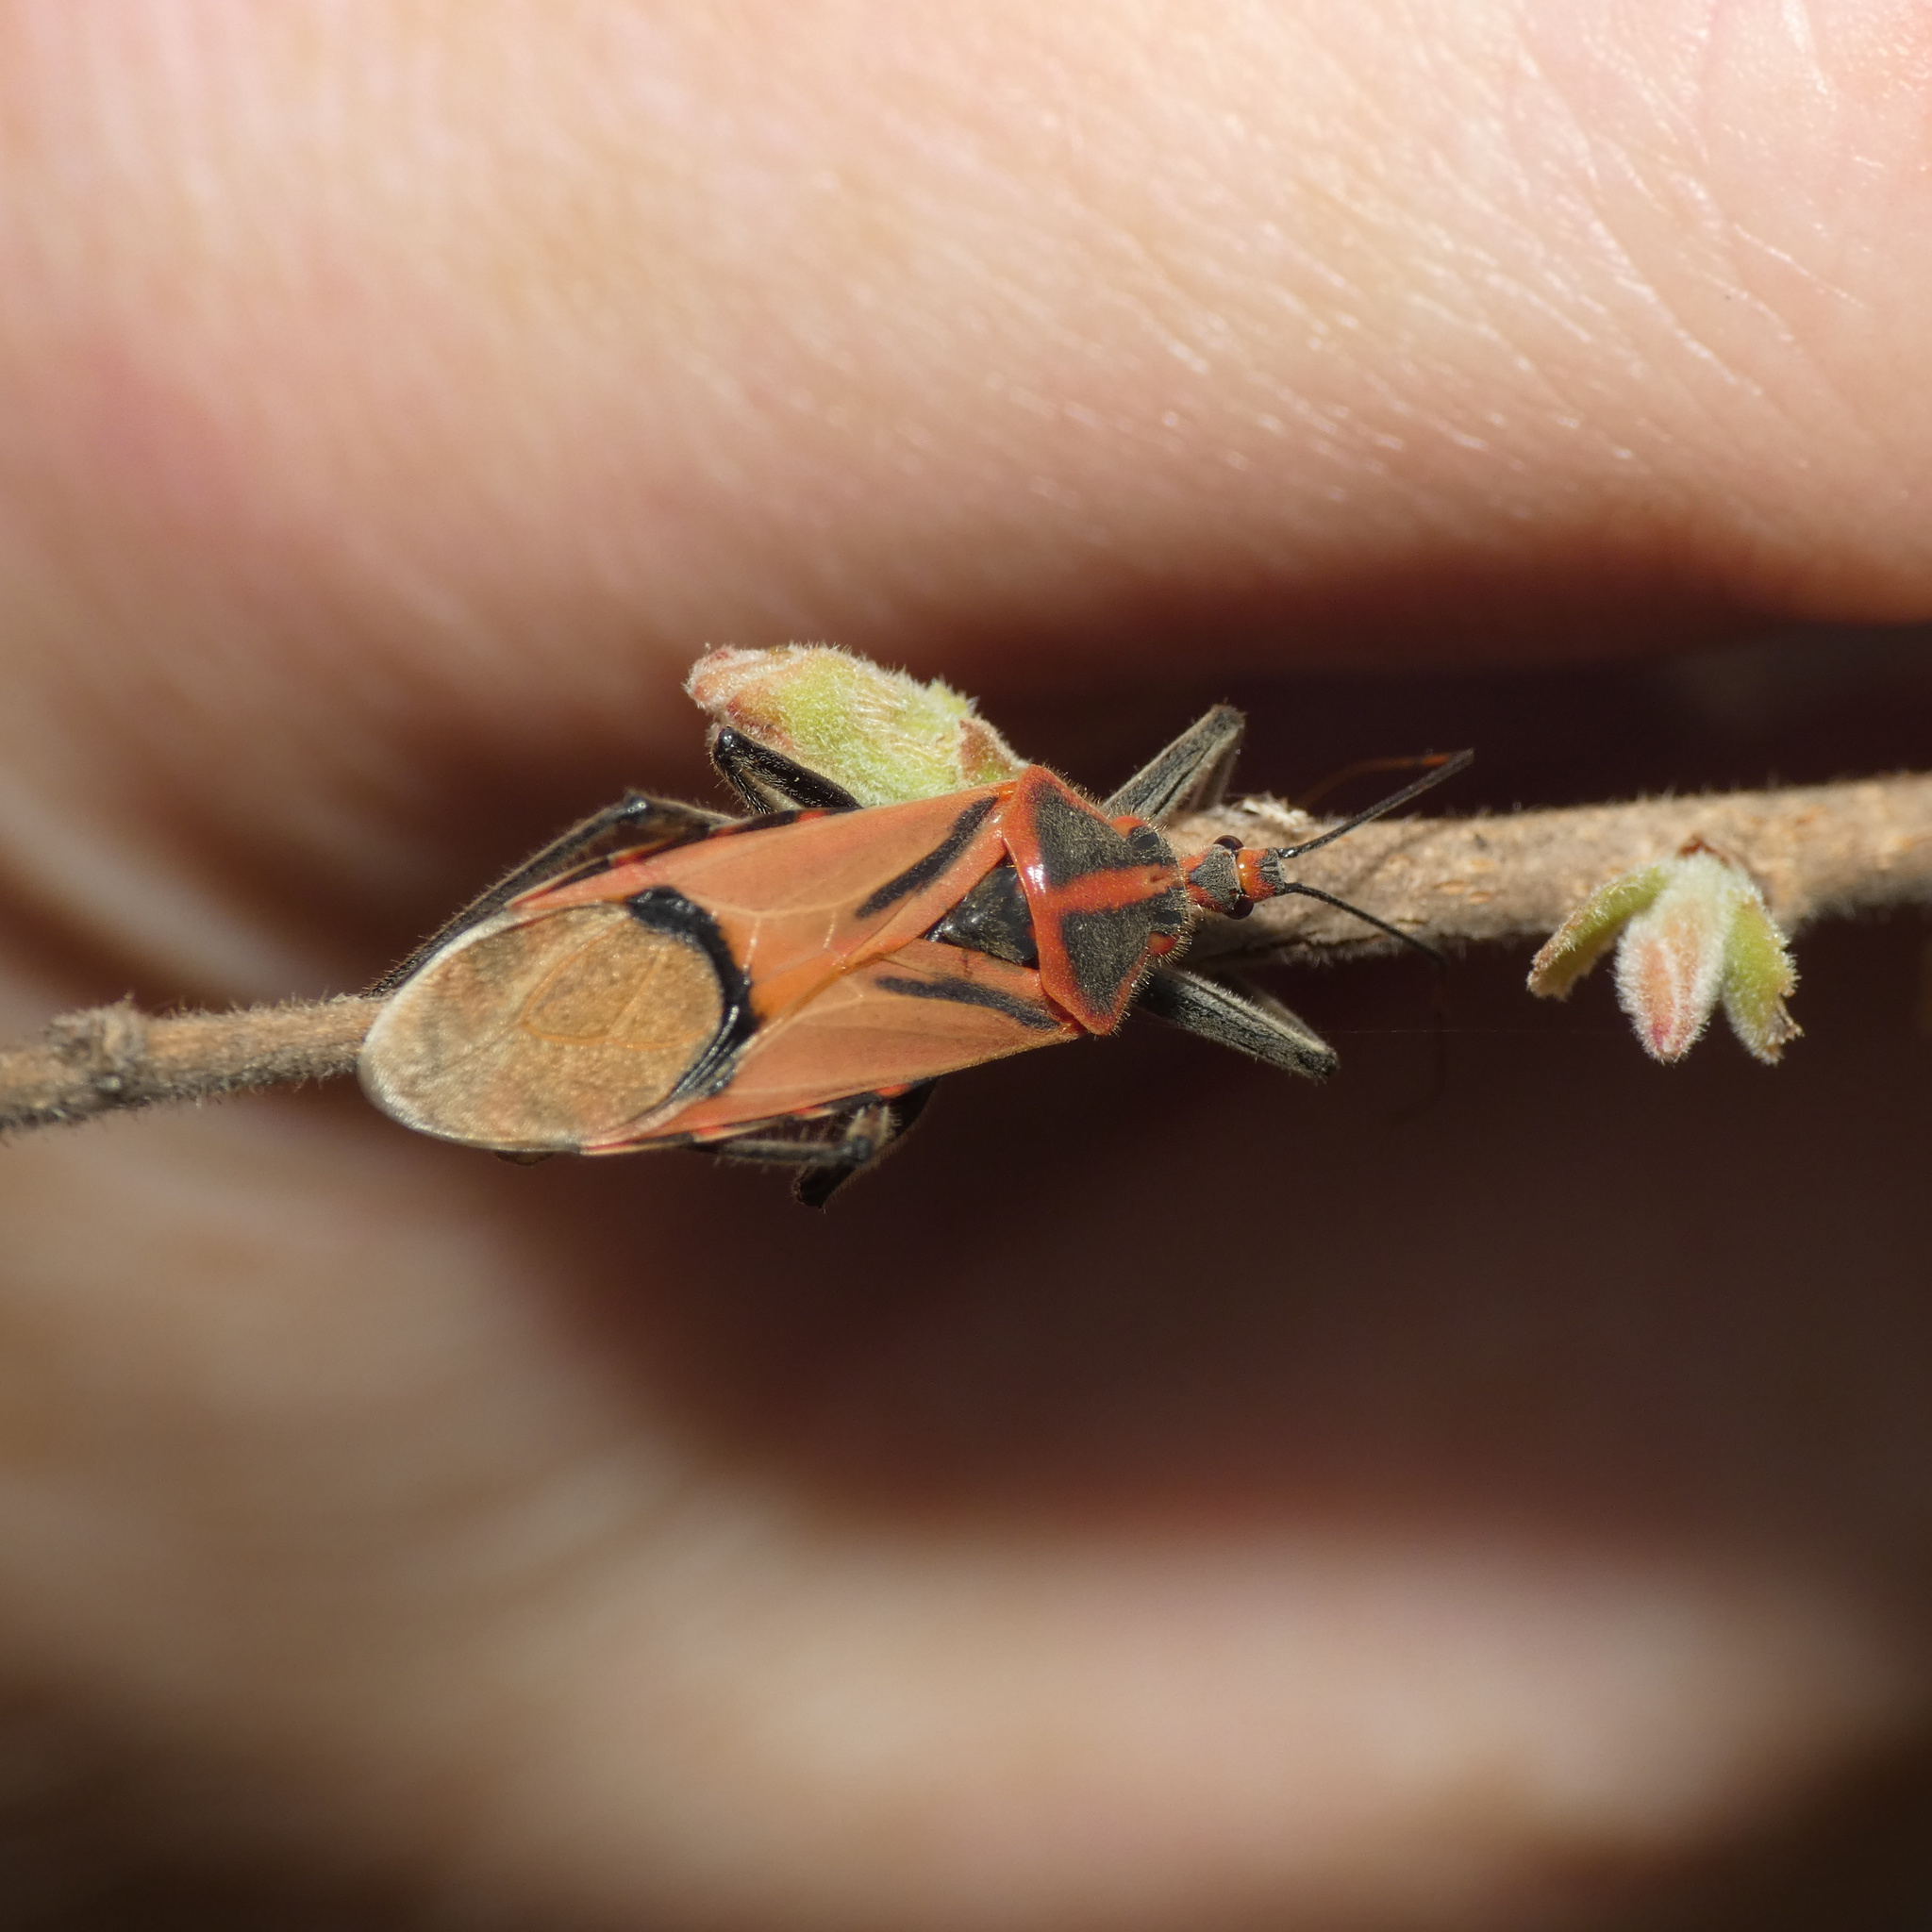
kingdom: Animalia
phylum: Arthropoda
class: Insecta
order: Hemiptera
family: Reduviidae
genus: Pseudophonoctonus
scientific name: Pseudophonoctonus paludatus
